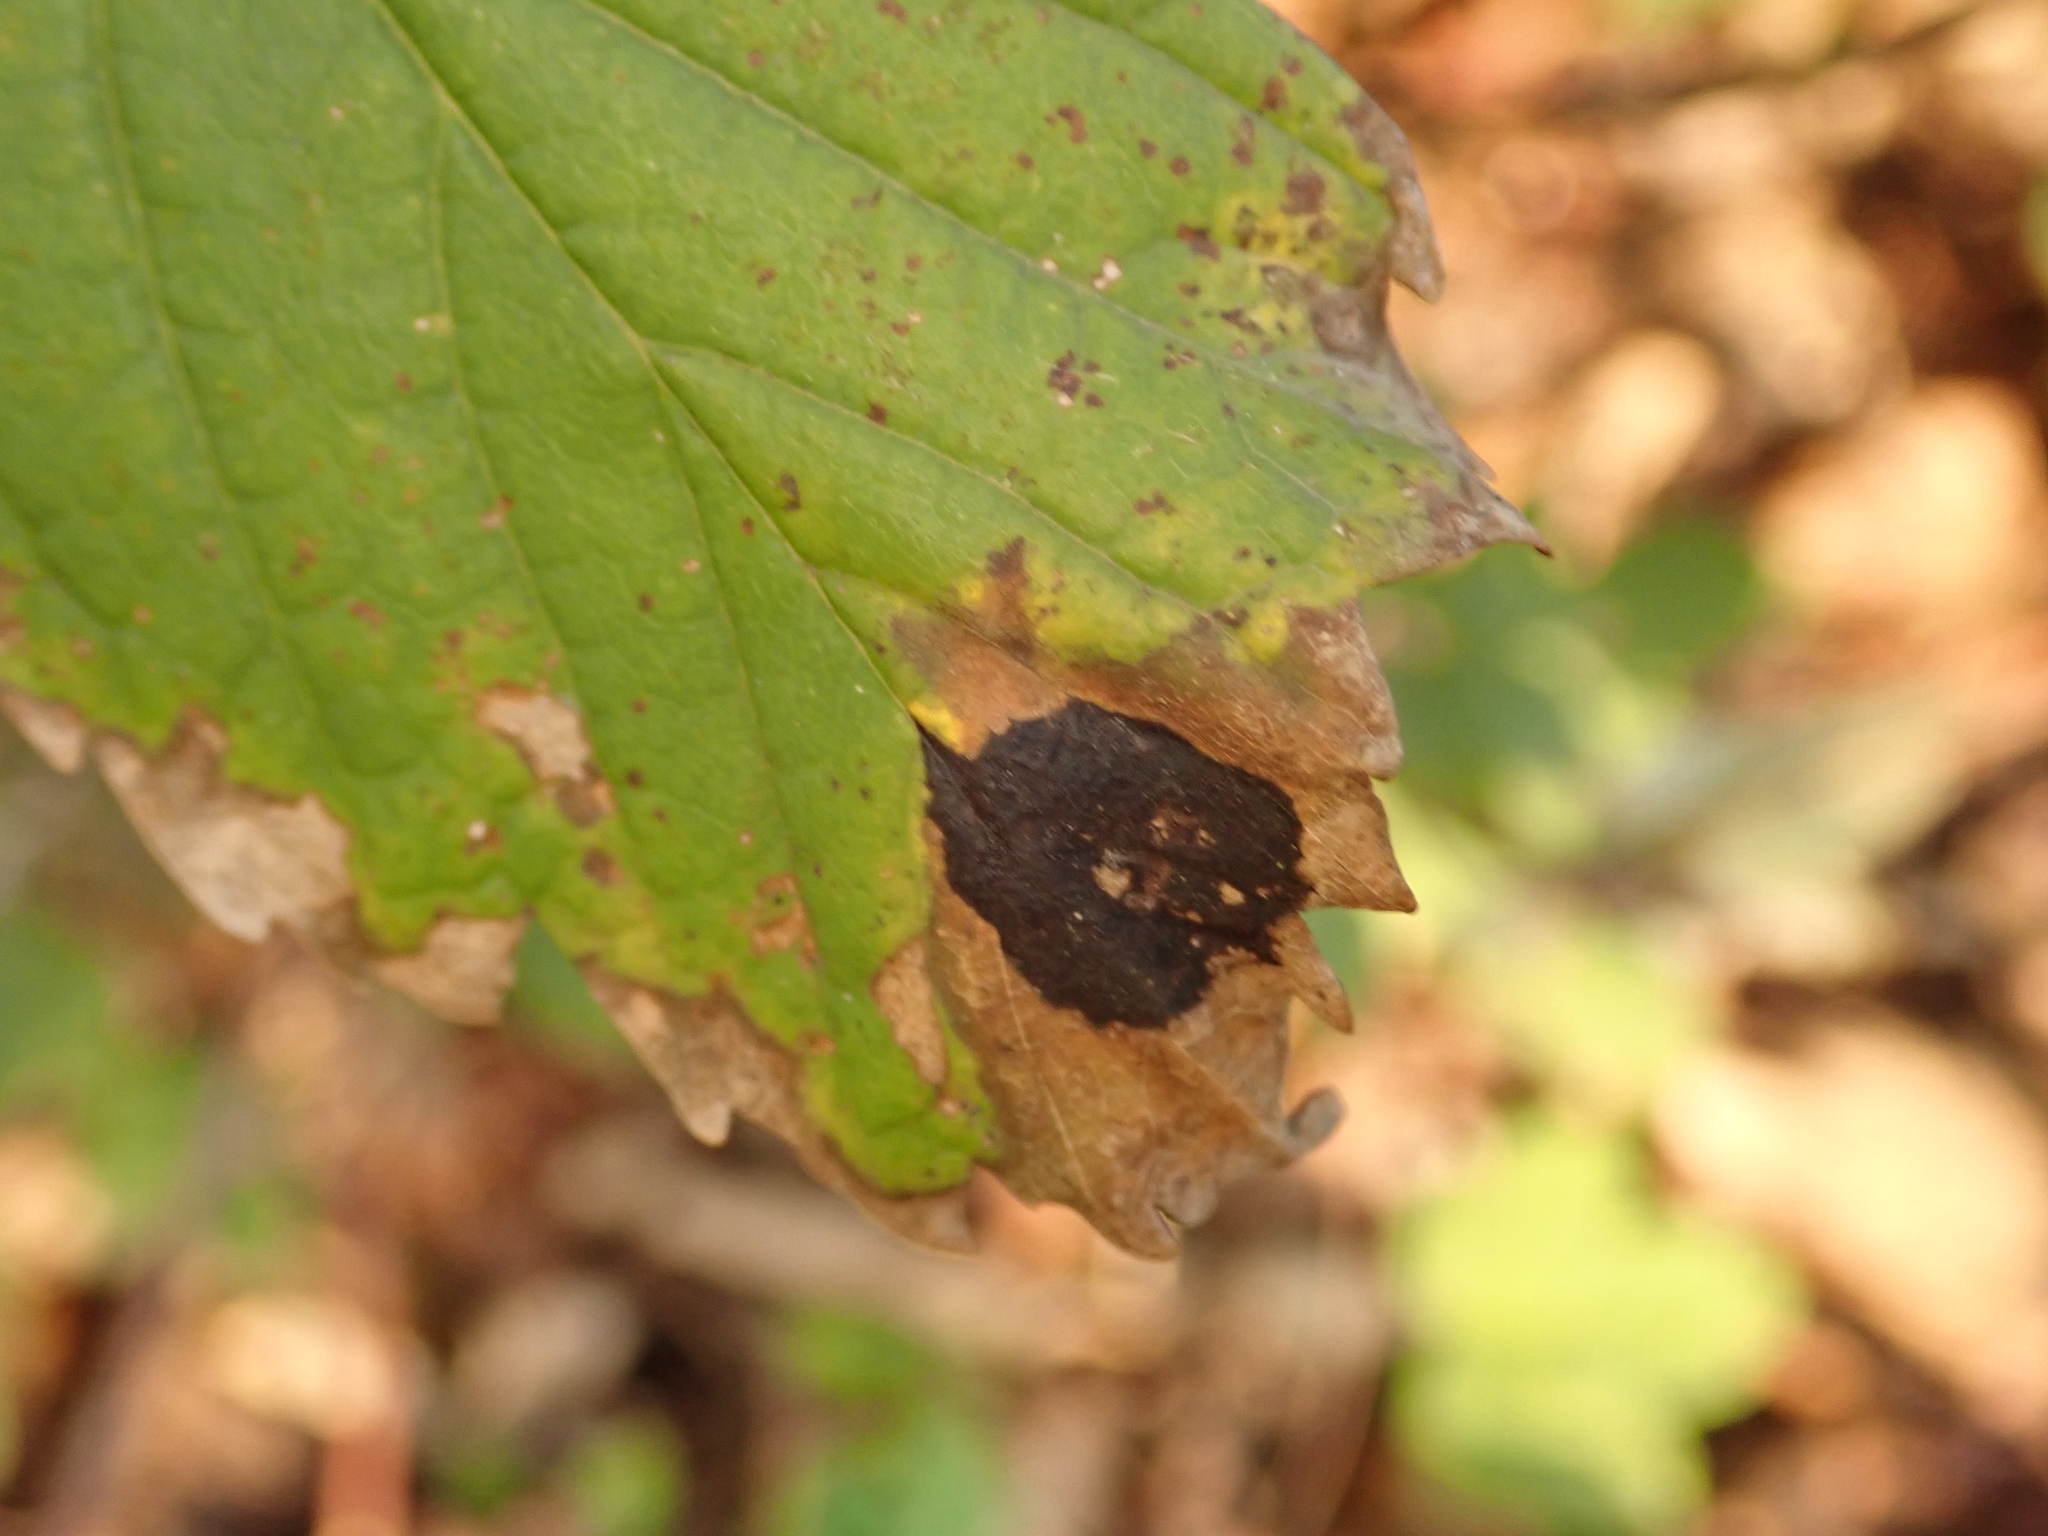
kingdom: Fungi
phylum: Ascomycota
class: Leotiomycetes
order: Rhytismatales
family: Rhytismataceae
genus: Rhytisma
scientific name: Rhytisma acerinum
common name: European tar spot
